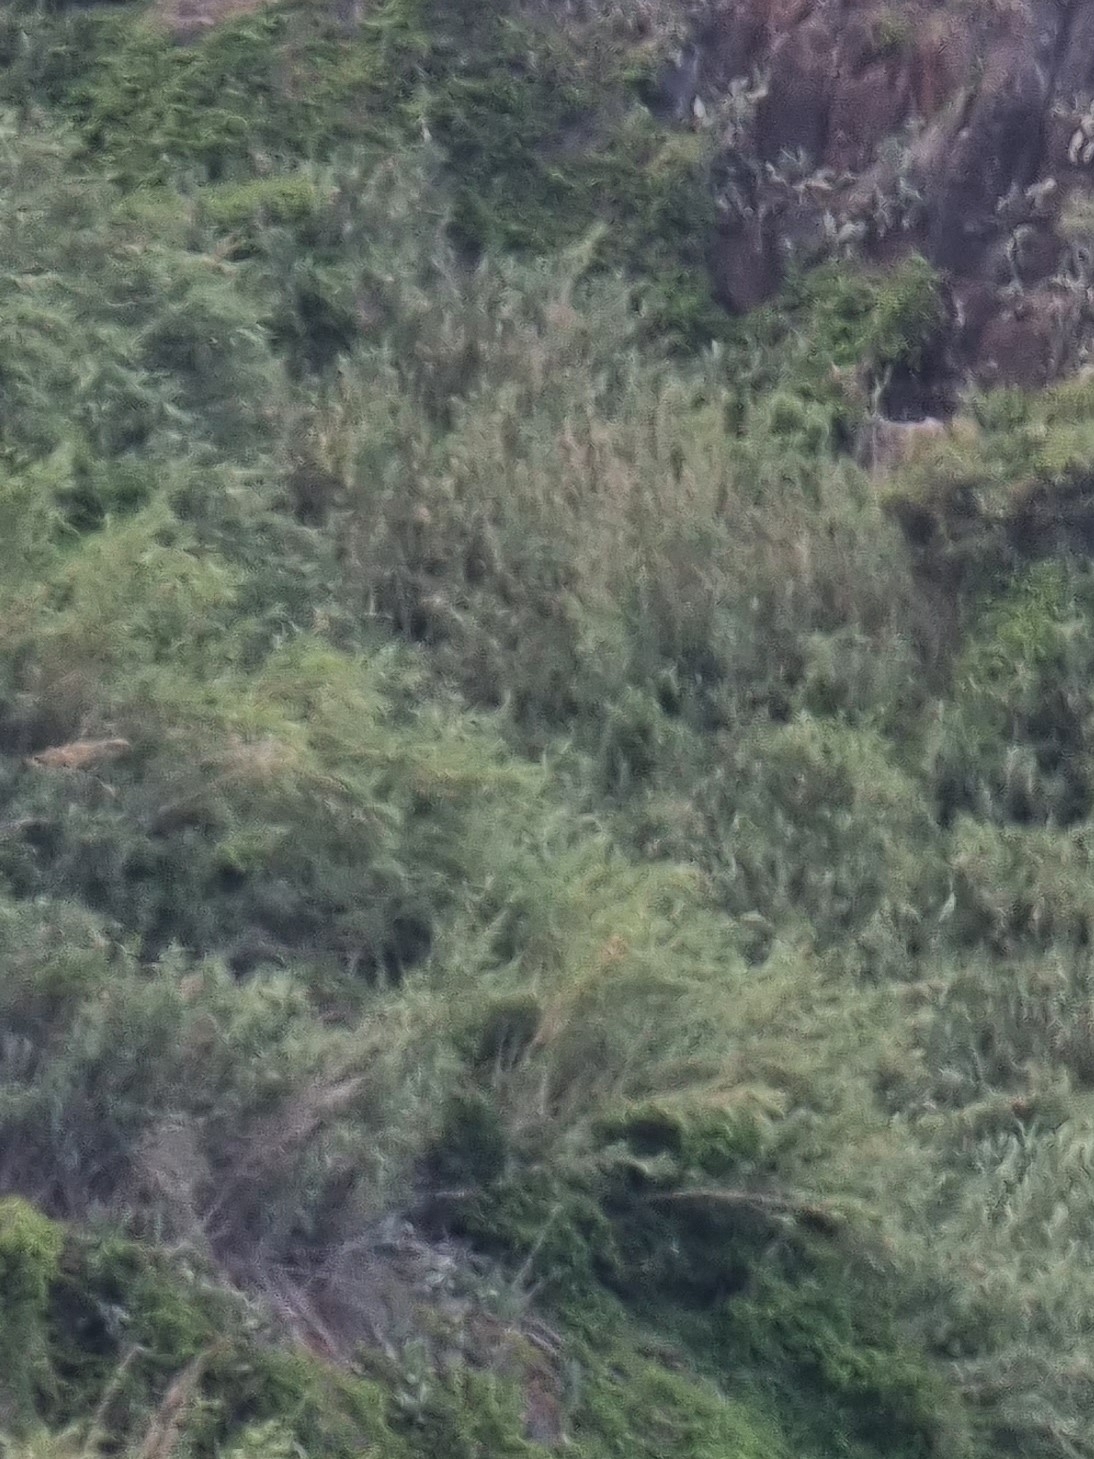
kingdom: Plantae
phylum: Tracheophyta
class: Liliopsida
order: Poales
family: Poaceae
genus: Arundo
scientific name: Arundo donax
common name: Giant reed
